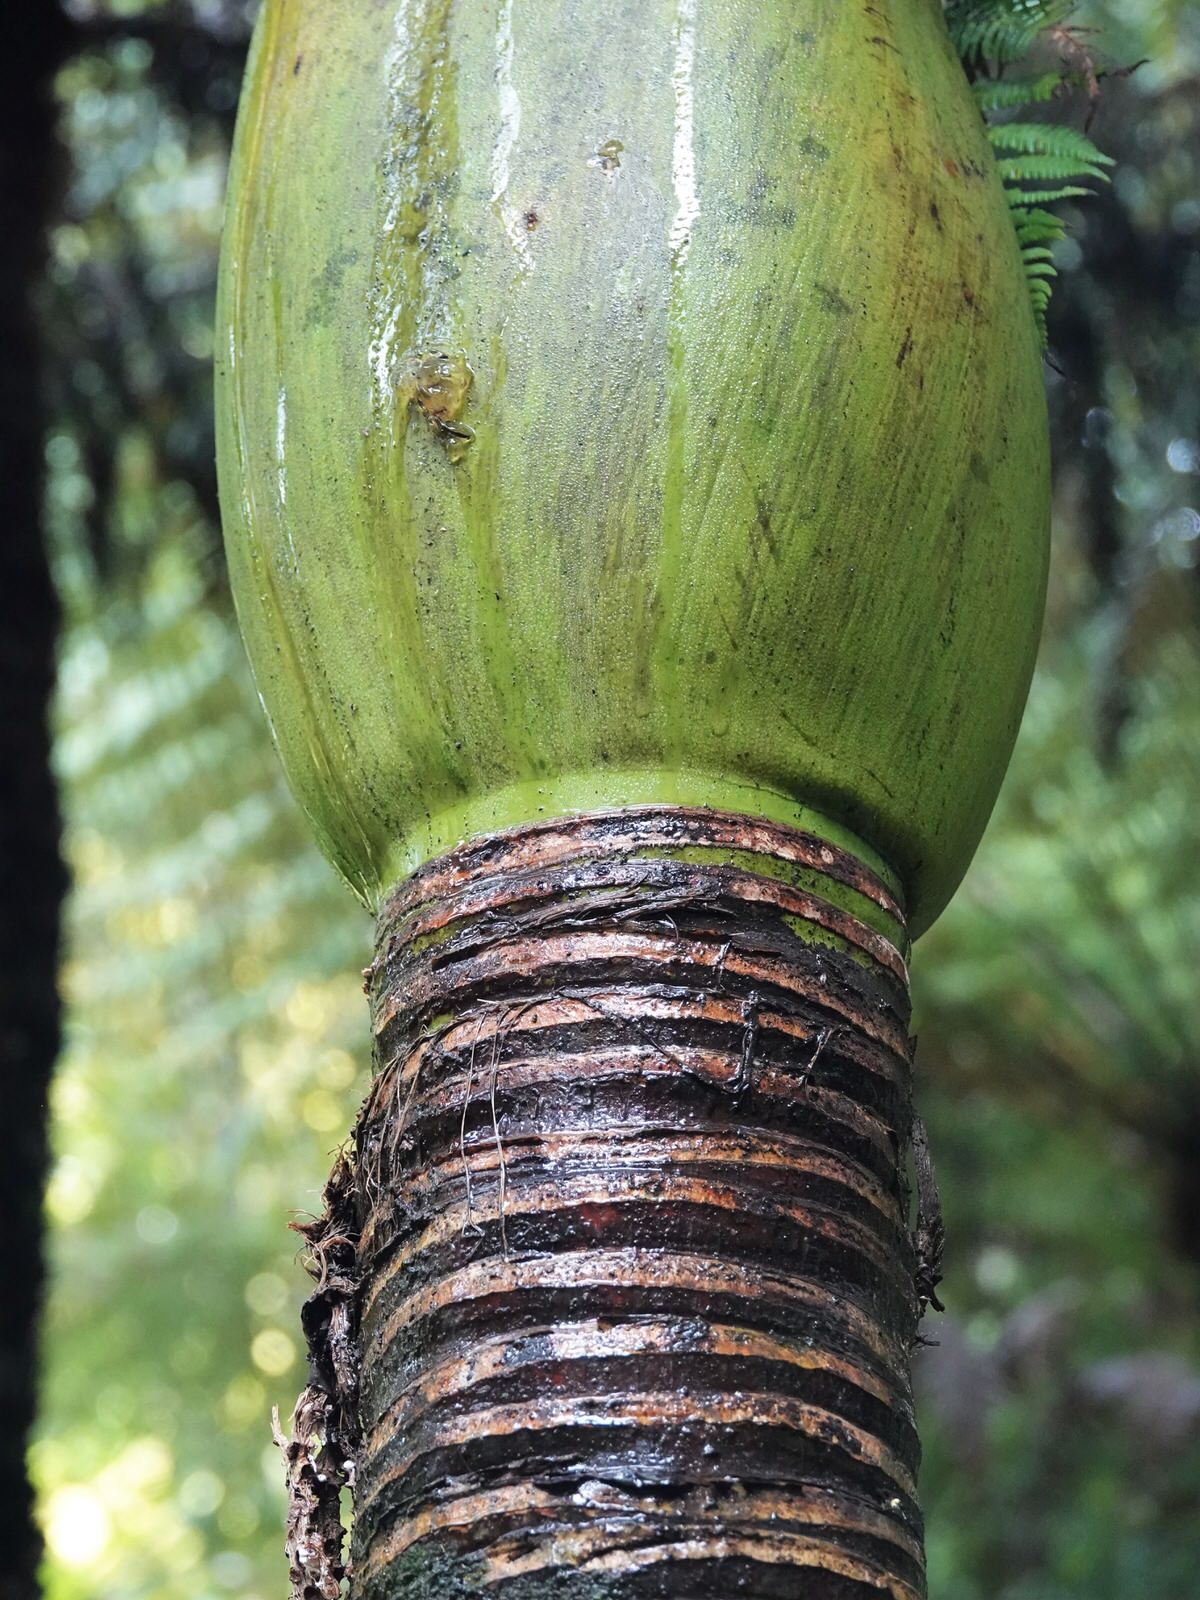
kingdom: Plantae
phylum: Tracheophyta
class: Liliopsida
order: Arecales
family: Arecaceae
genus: Rhopalostylis
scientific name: Rhopalostylis sapida
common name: Feather-duster palm
